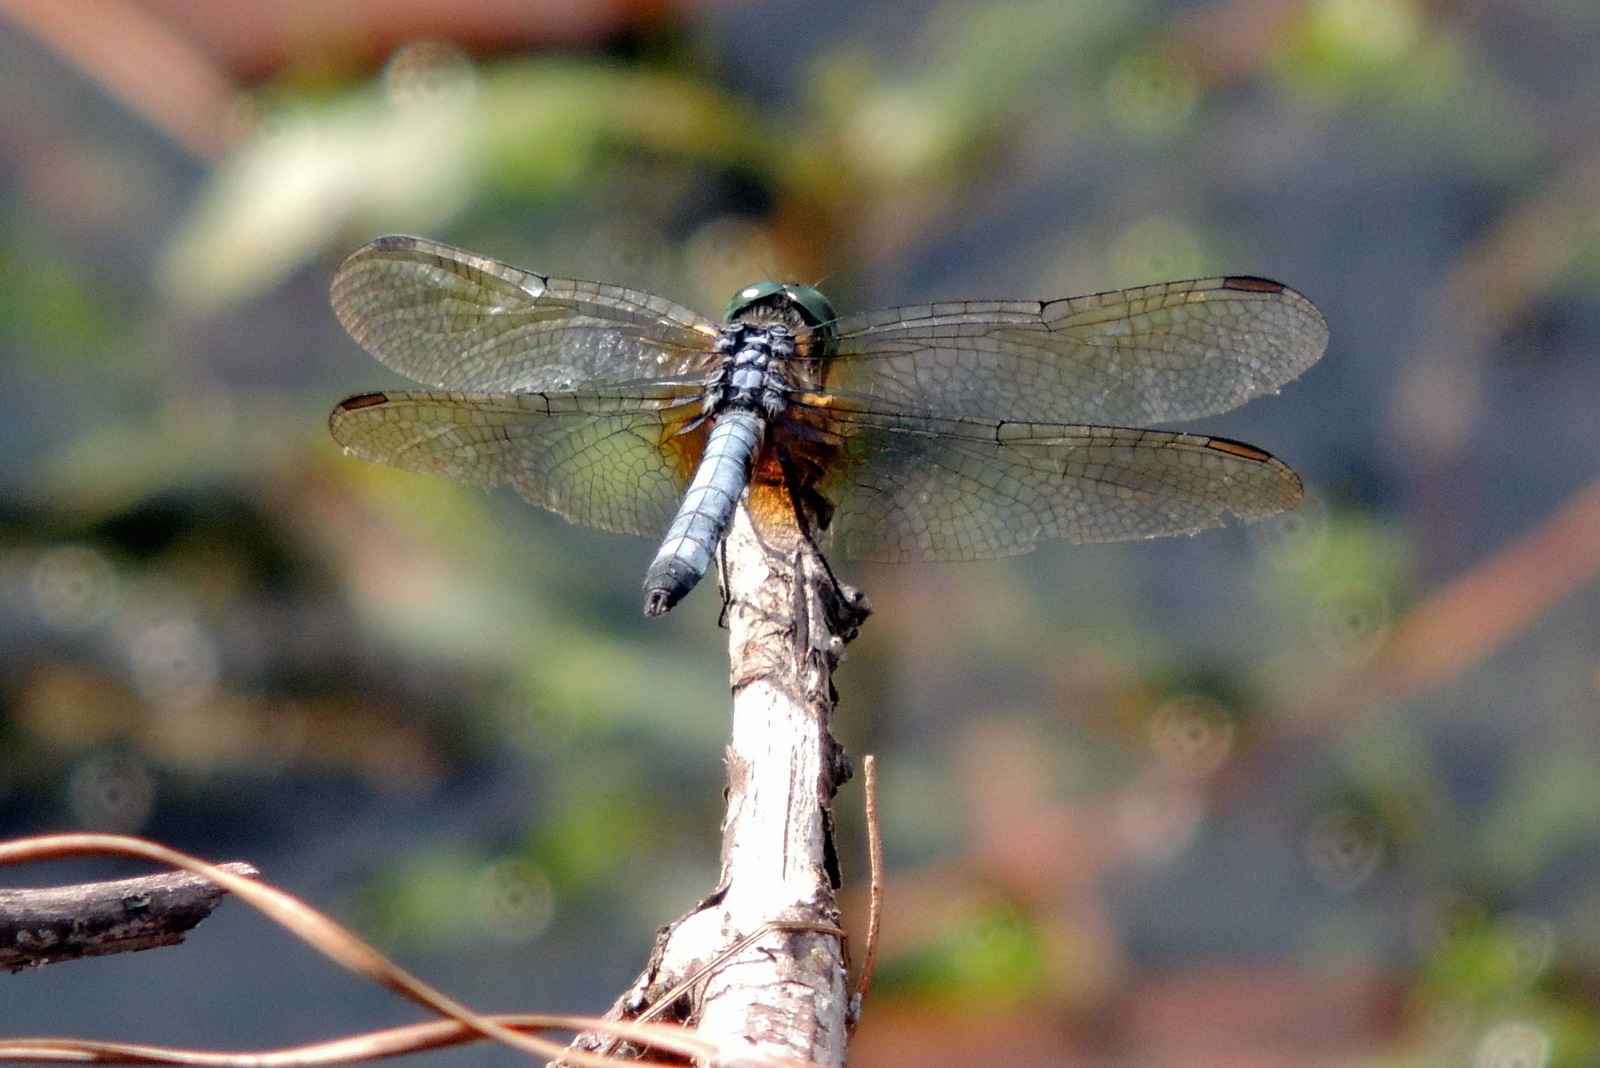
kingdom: Animalia
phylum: Arthropoda
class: Insecta
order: Odonata
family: Libellulidae
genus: Pachydiplax
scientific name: Pachydiplax longipennis
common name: Blue dasher
